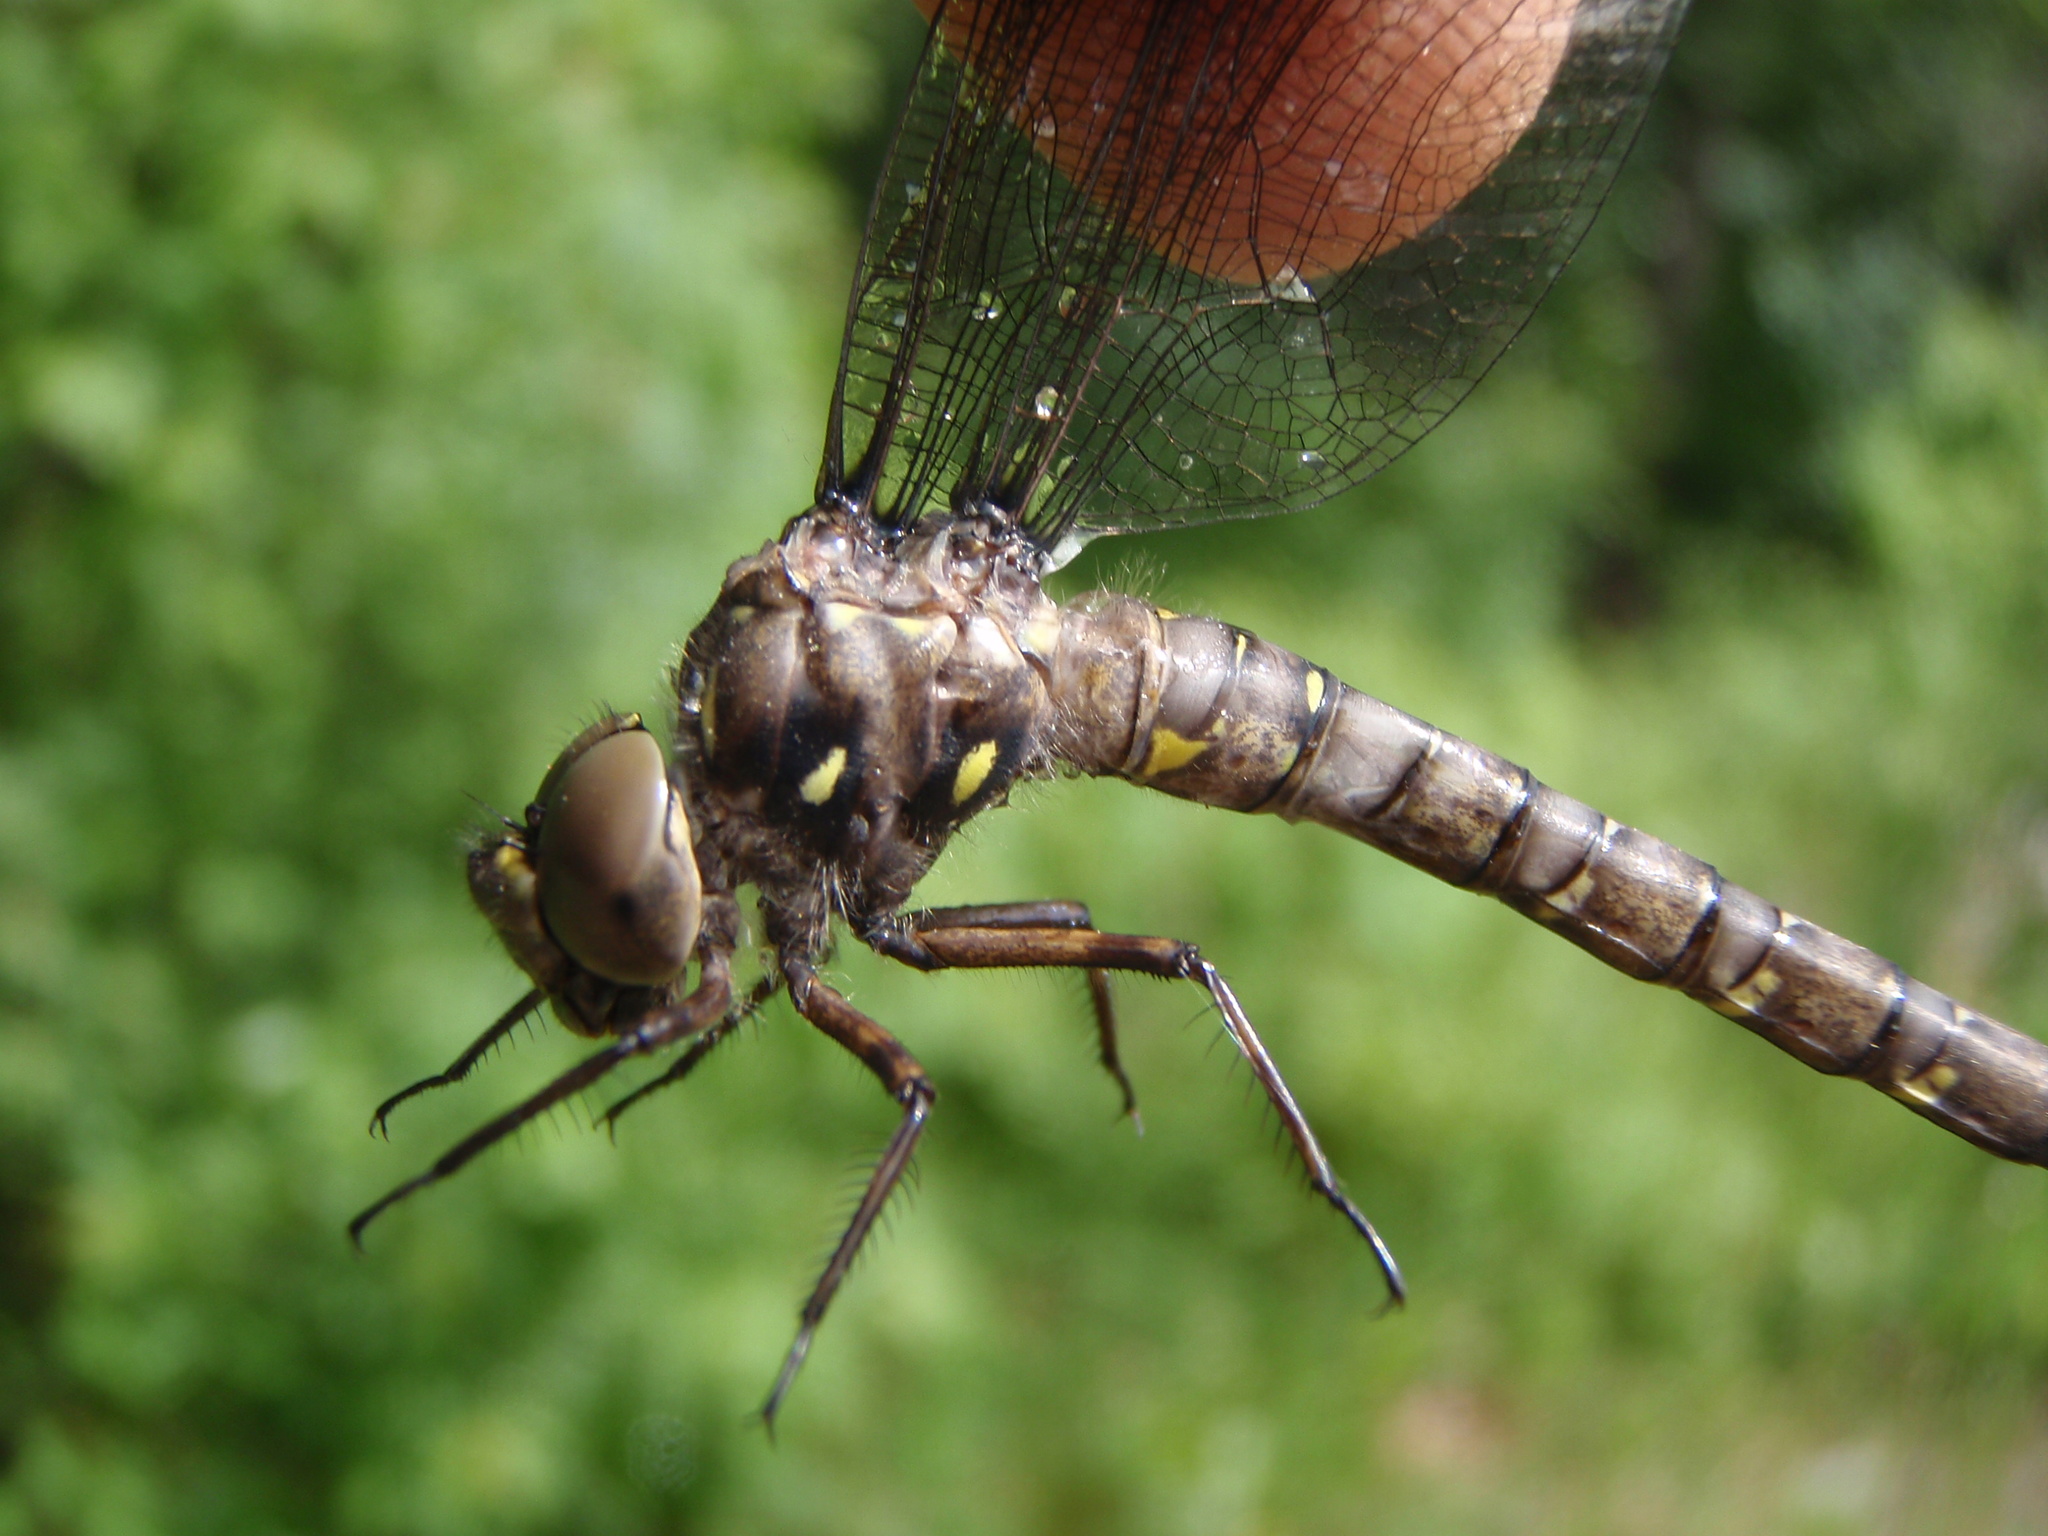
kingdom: Animalia
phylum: Arthropoda
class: Insecta
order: Odonata
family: Aeshnidae
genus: Boyeria
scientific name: Boyeria grafiana
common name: Ocellated darner
